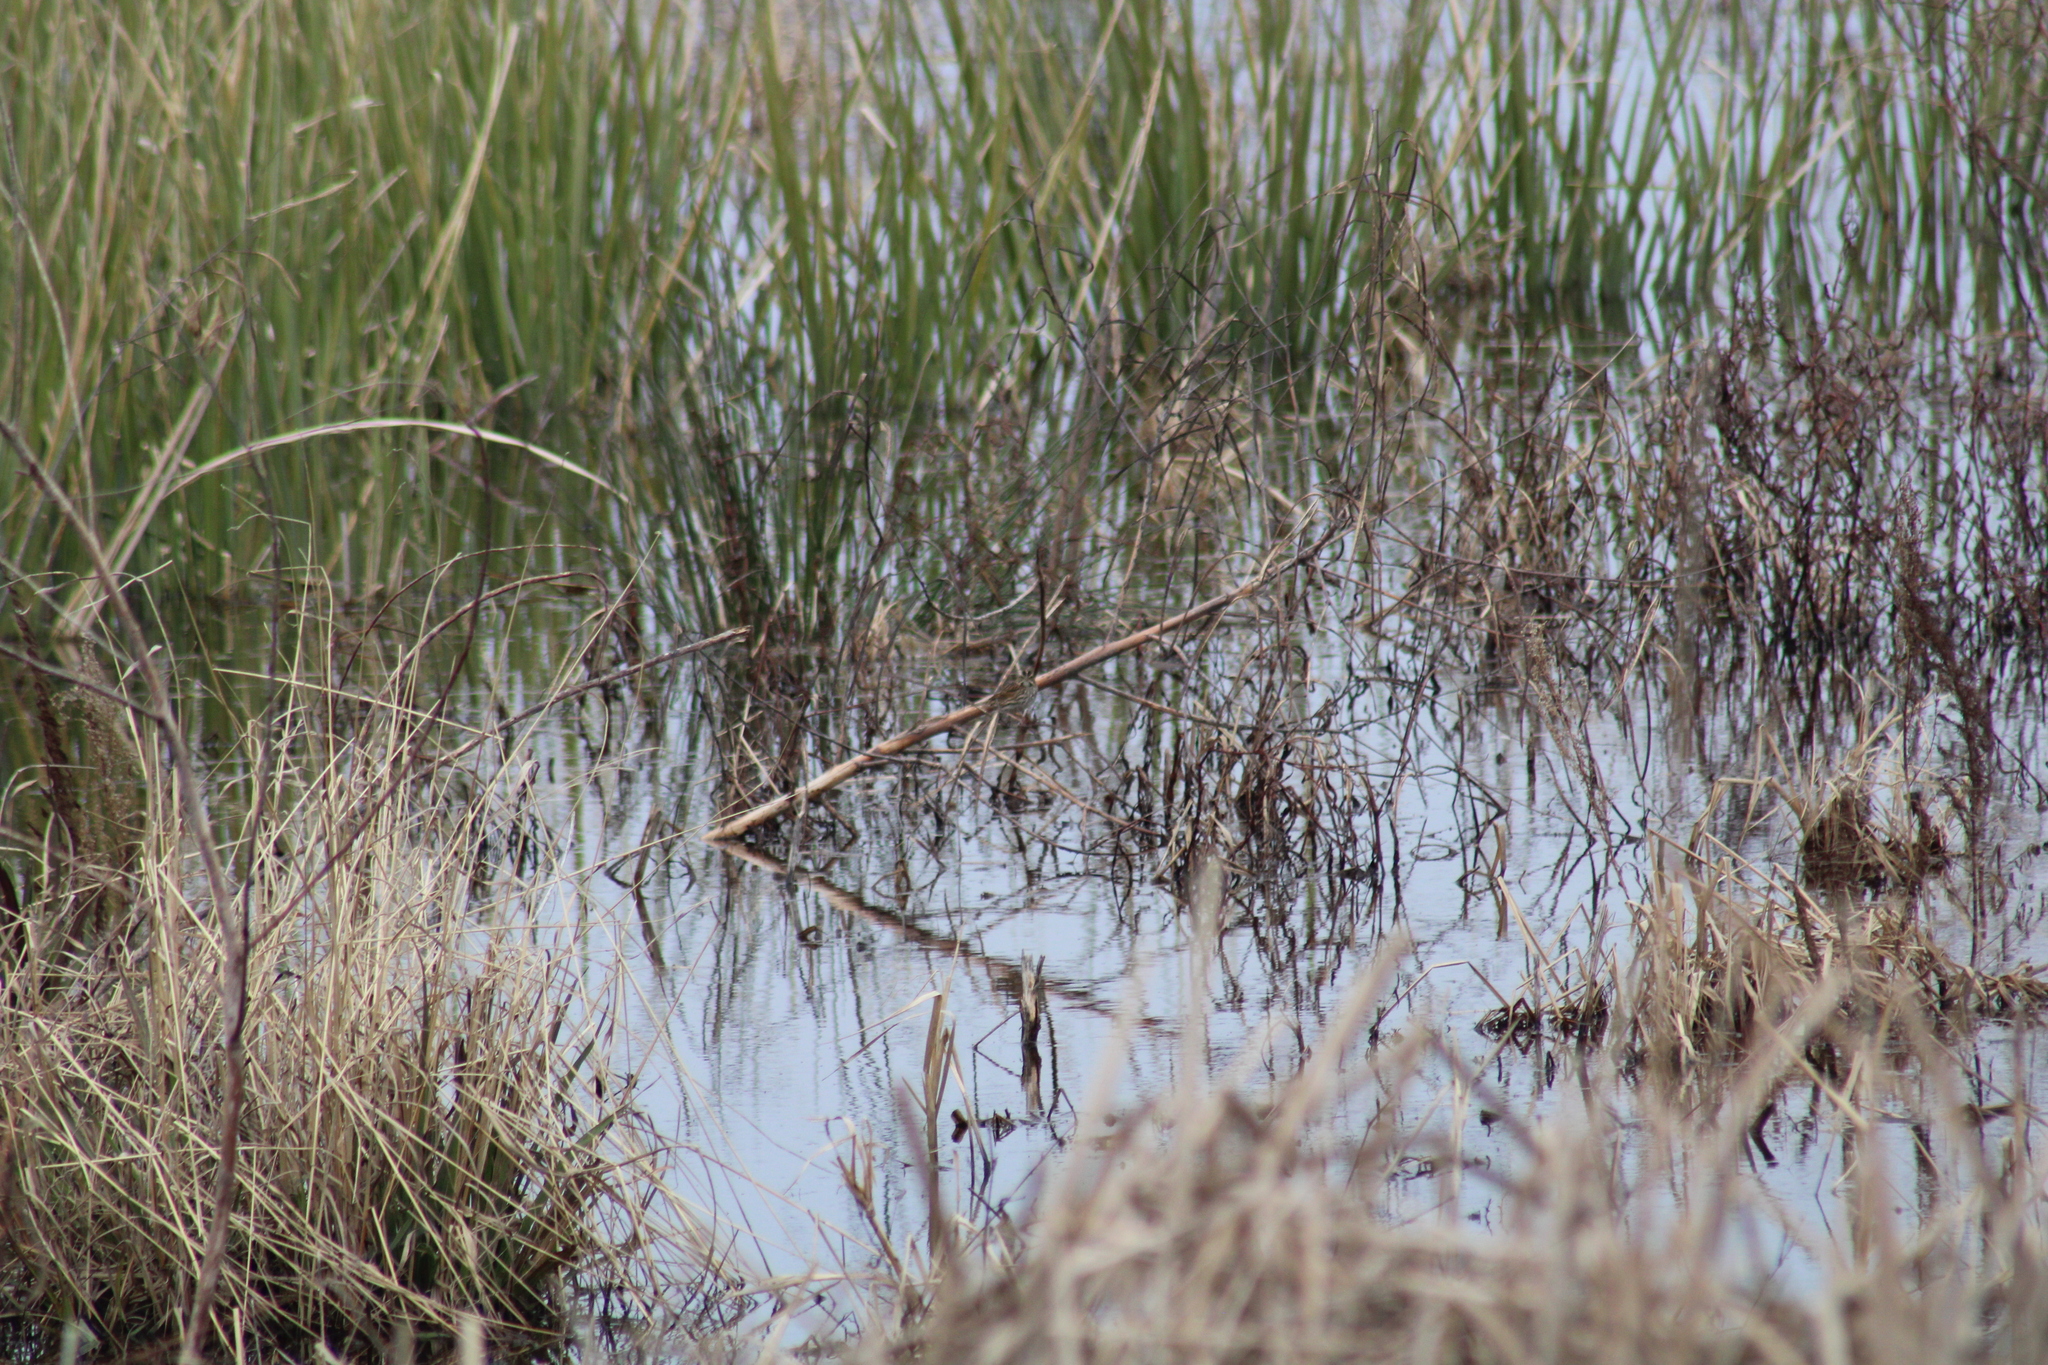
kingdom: Animalia
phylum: Chordata
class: Aves
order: Passeriformes
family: Passerellidae
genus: Passerculus
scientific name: Passerculus sandwichensis
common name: Savannah sparrow
